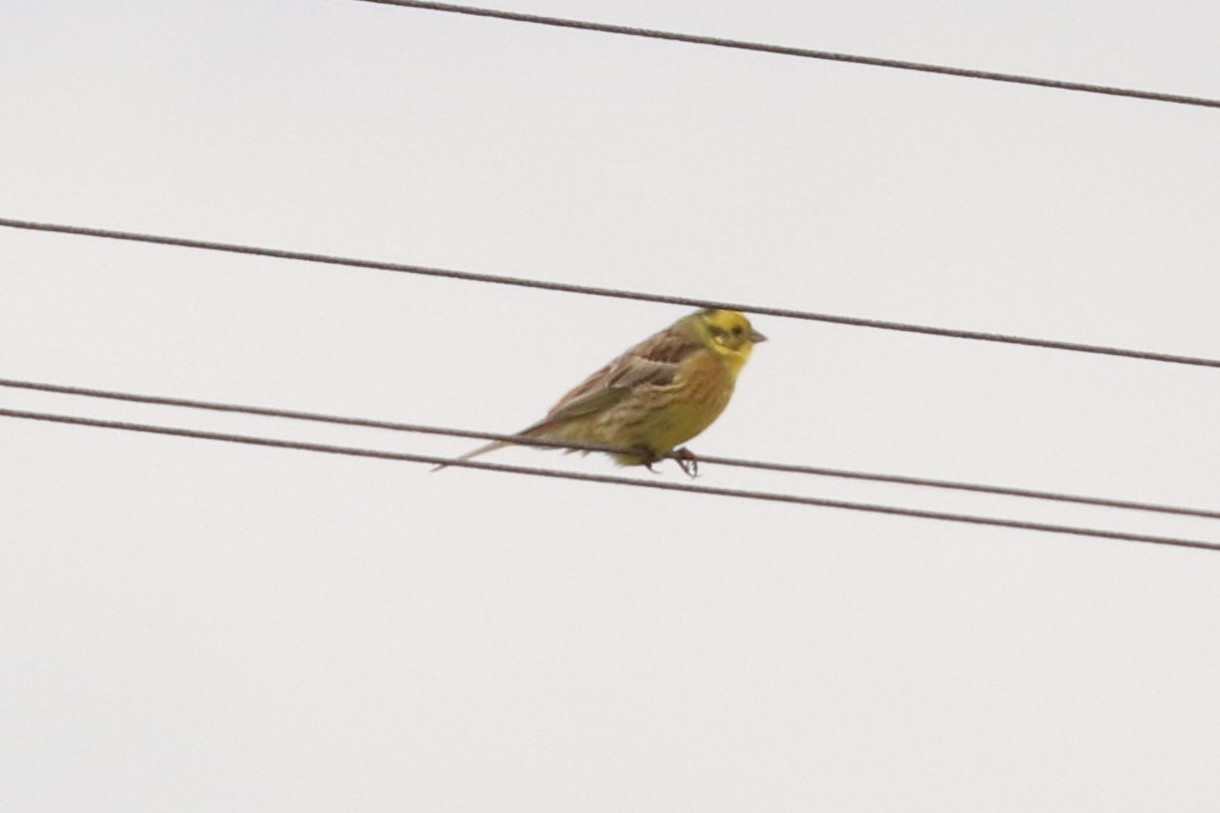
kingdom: Animalia
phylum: Chordata
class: Aves
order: Passeriformes
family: Emberizidae
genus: Emberiza
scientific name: Emberiza citrinella
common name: Yellowhammer
